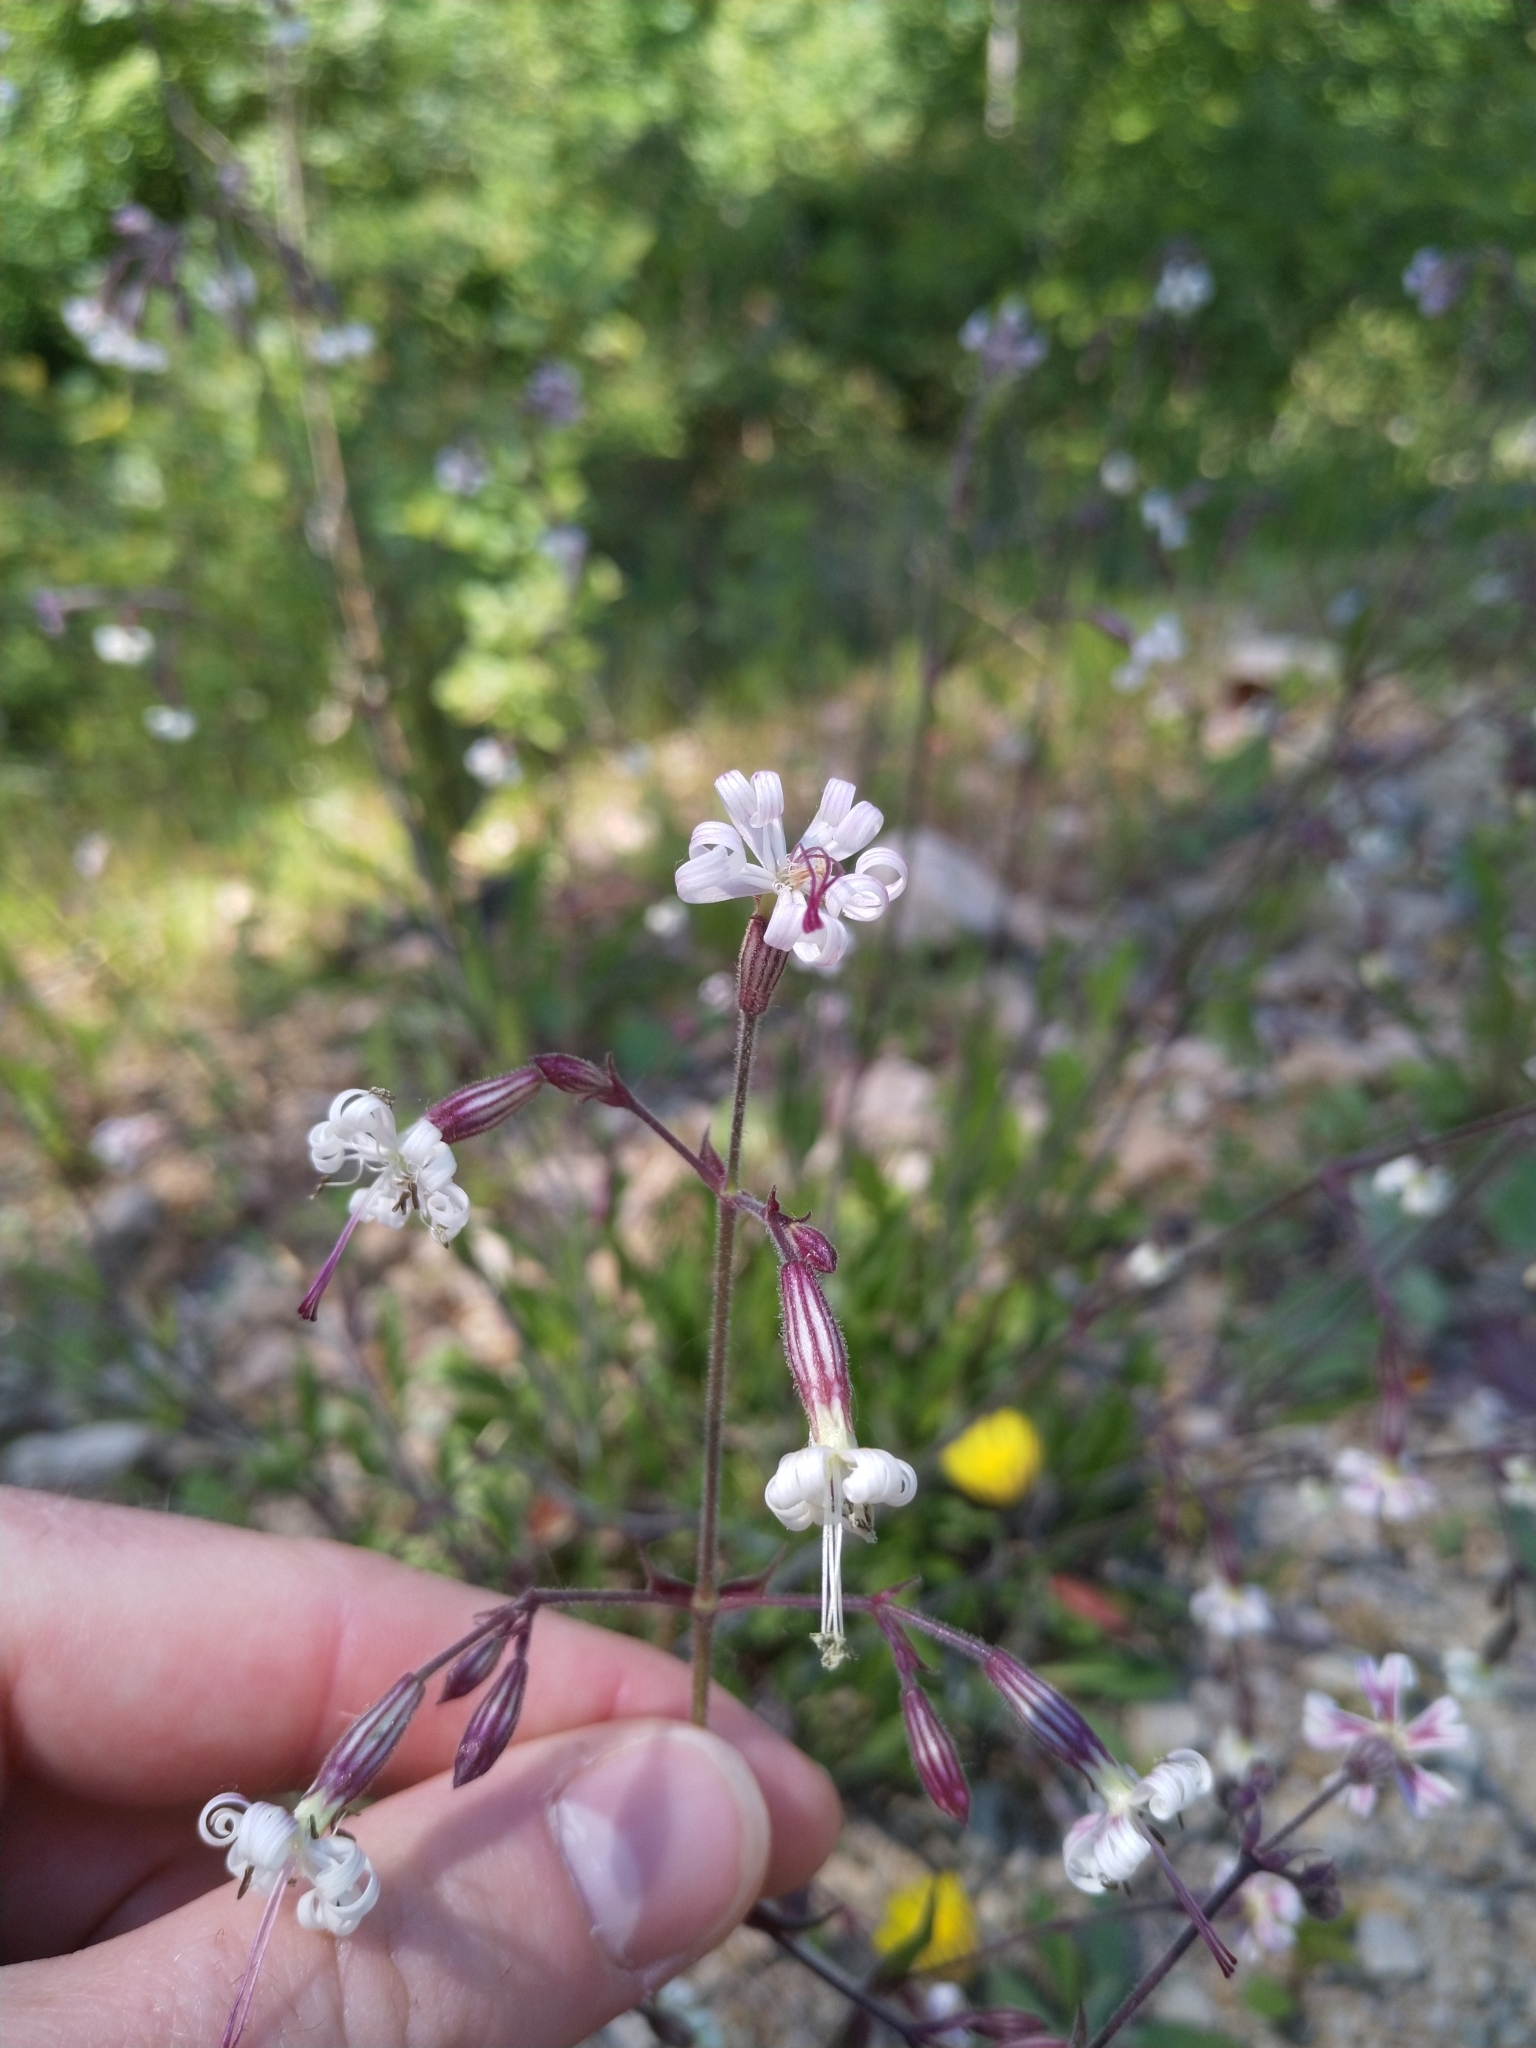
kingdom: Plantae
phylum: Tracheophyta
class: Magnoliopsida
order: Caryophyllales
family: Caryophyllaceae
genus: Silene
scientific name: Silene nutans
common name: Nottingham catchfly
